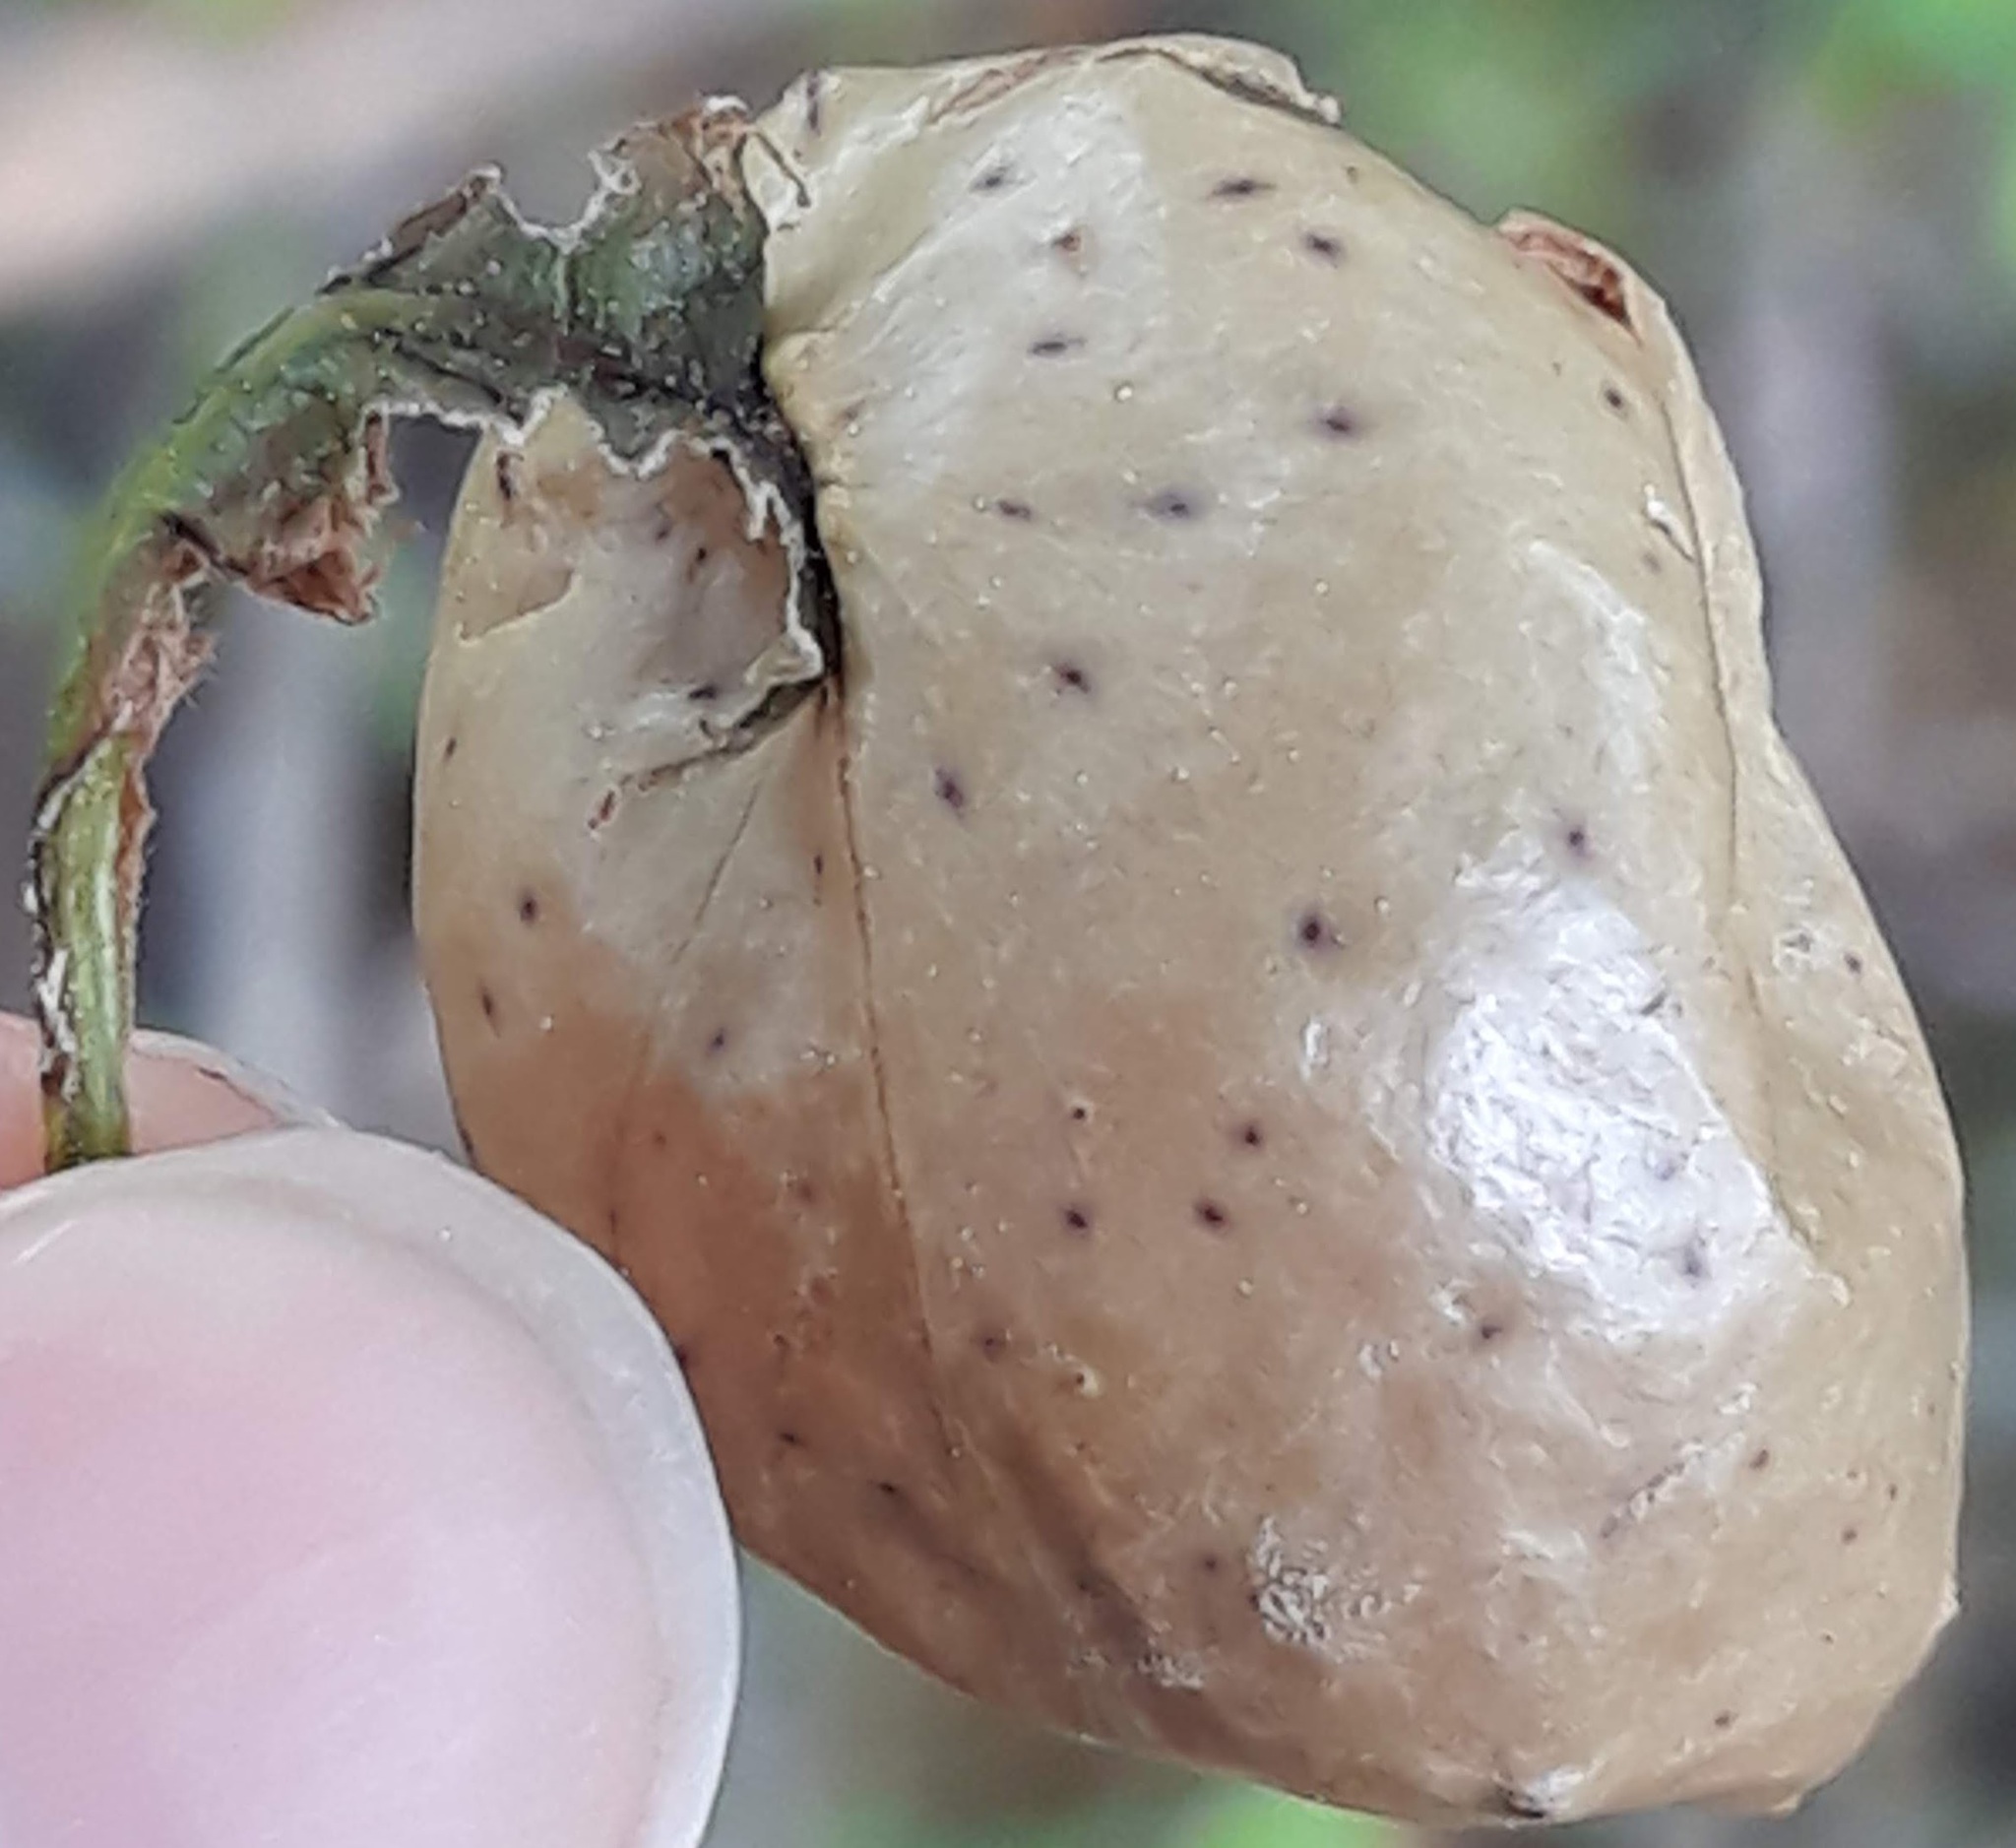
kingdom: Animalia
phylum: Arthropoda
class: Insecta
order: Hymenoptera
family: Cynipidae
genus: Amphibolips
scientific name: Amphibolips
